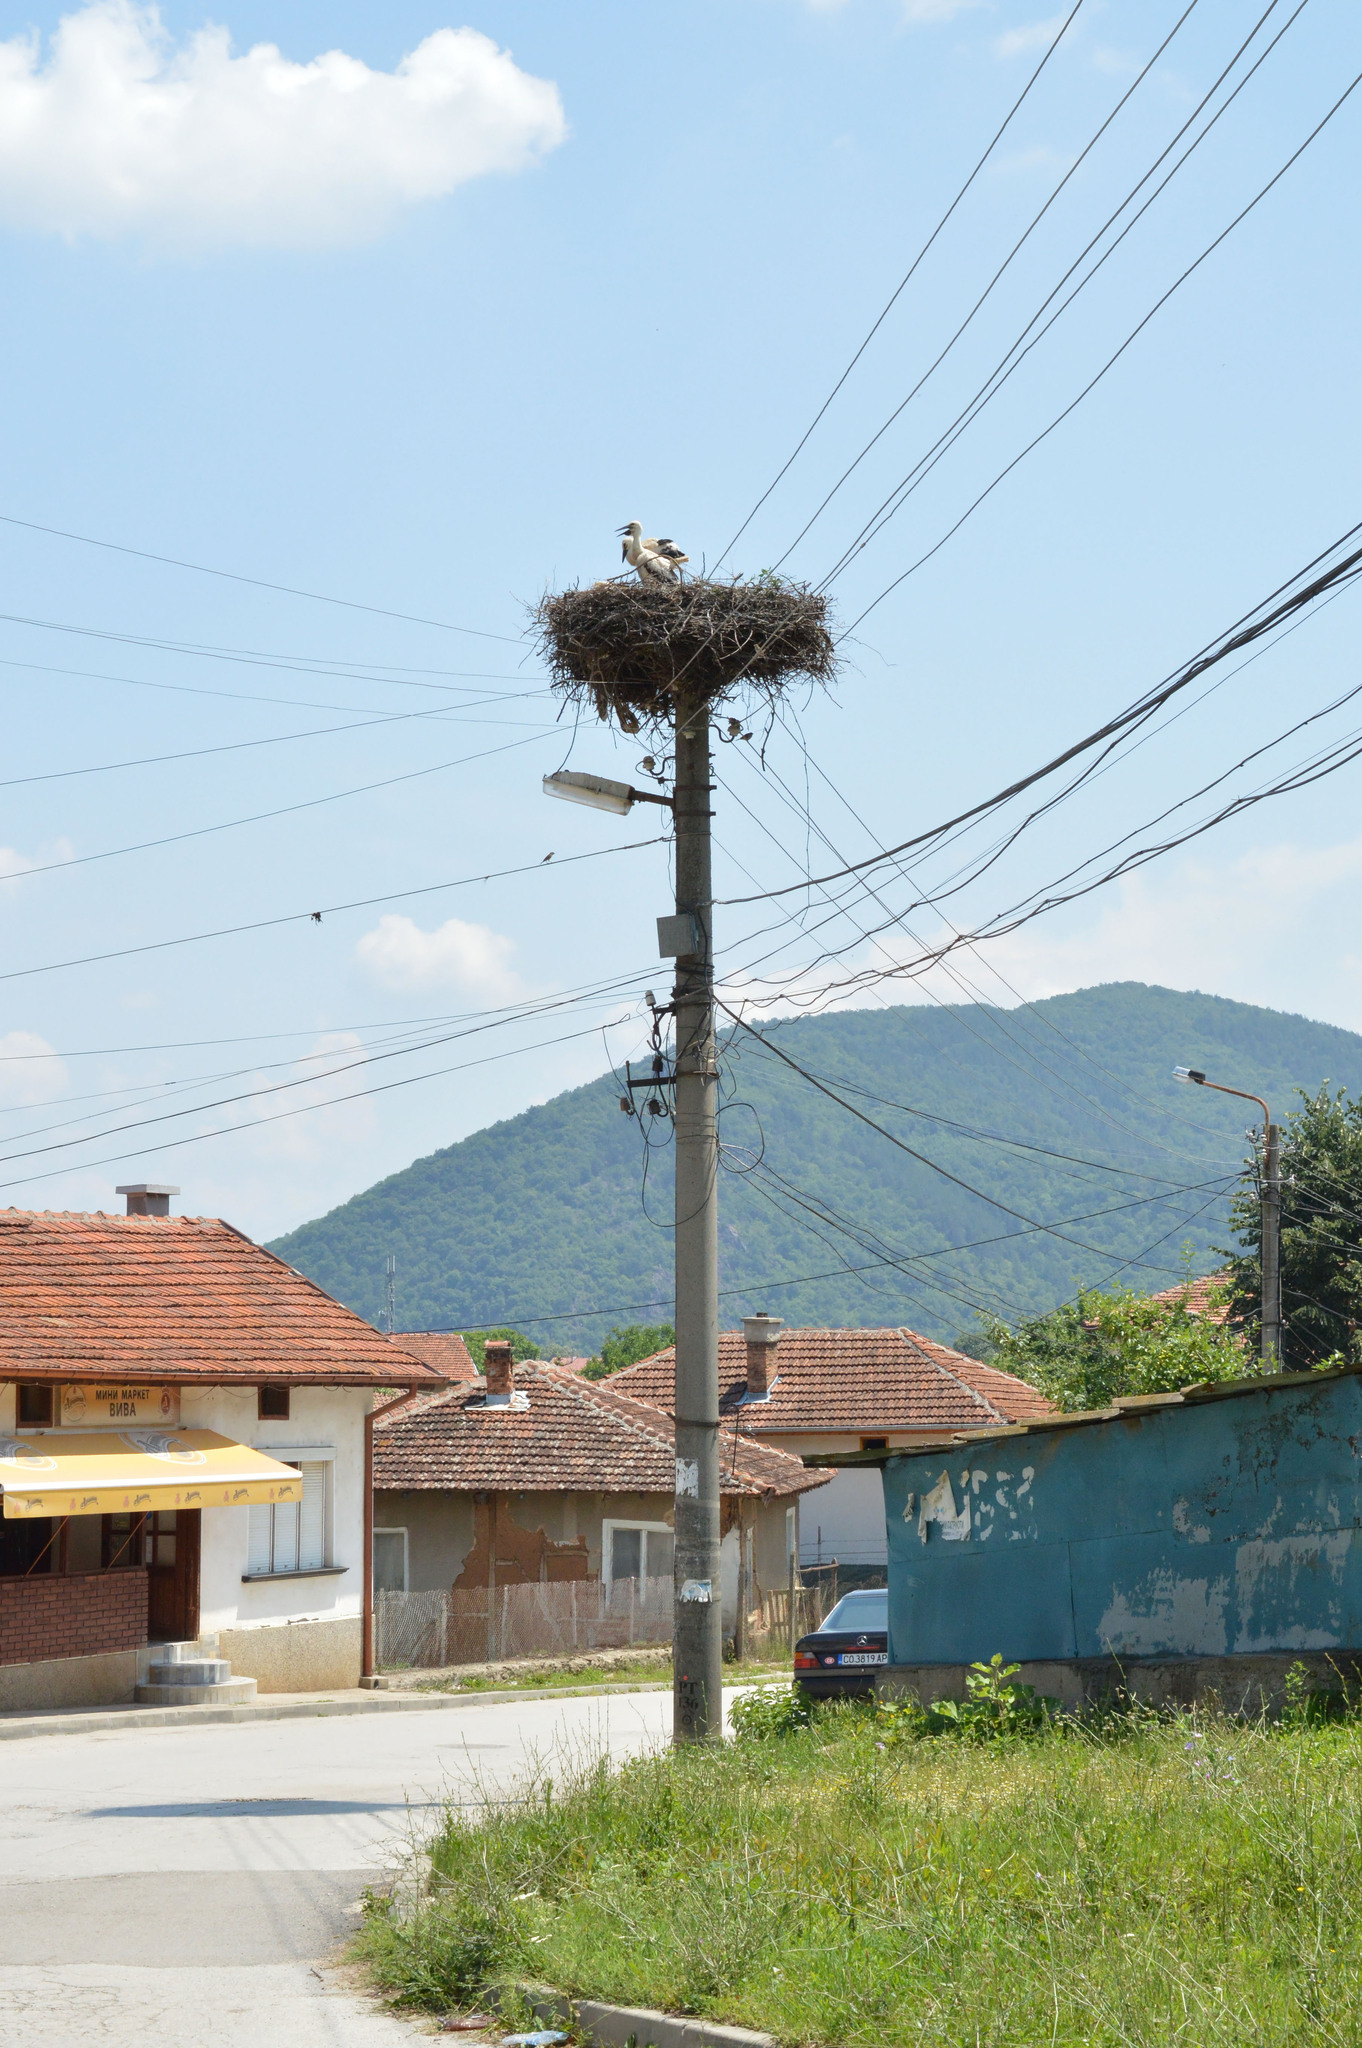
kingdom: Animalia
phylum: Chordata
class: Aves
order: Ciconiiformes
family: Ciconiidae
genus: Ciconia
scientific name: Ciconia ciconia
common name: White stork
